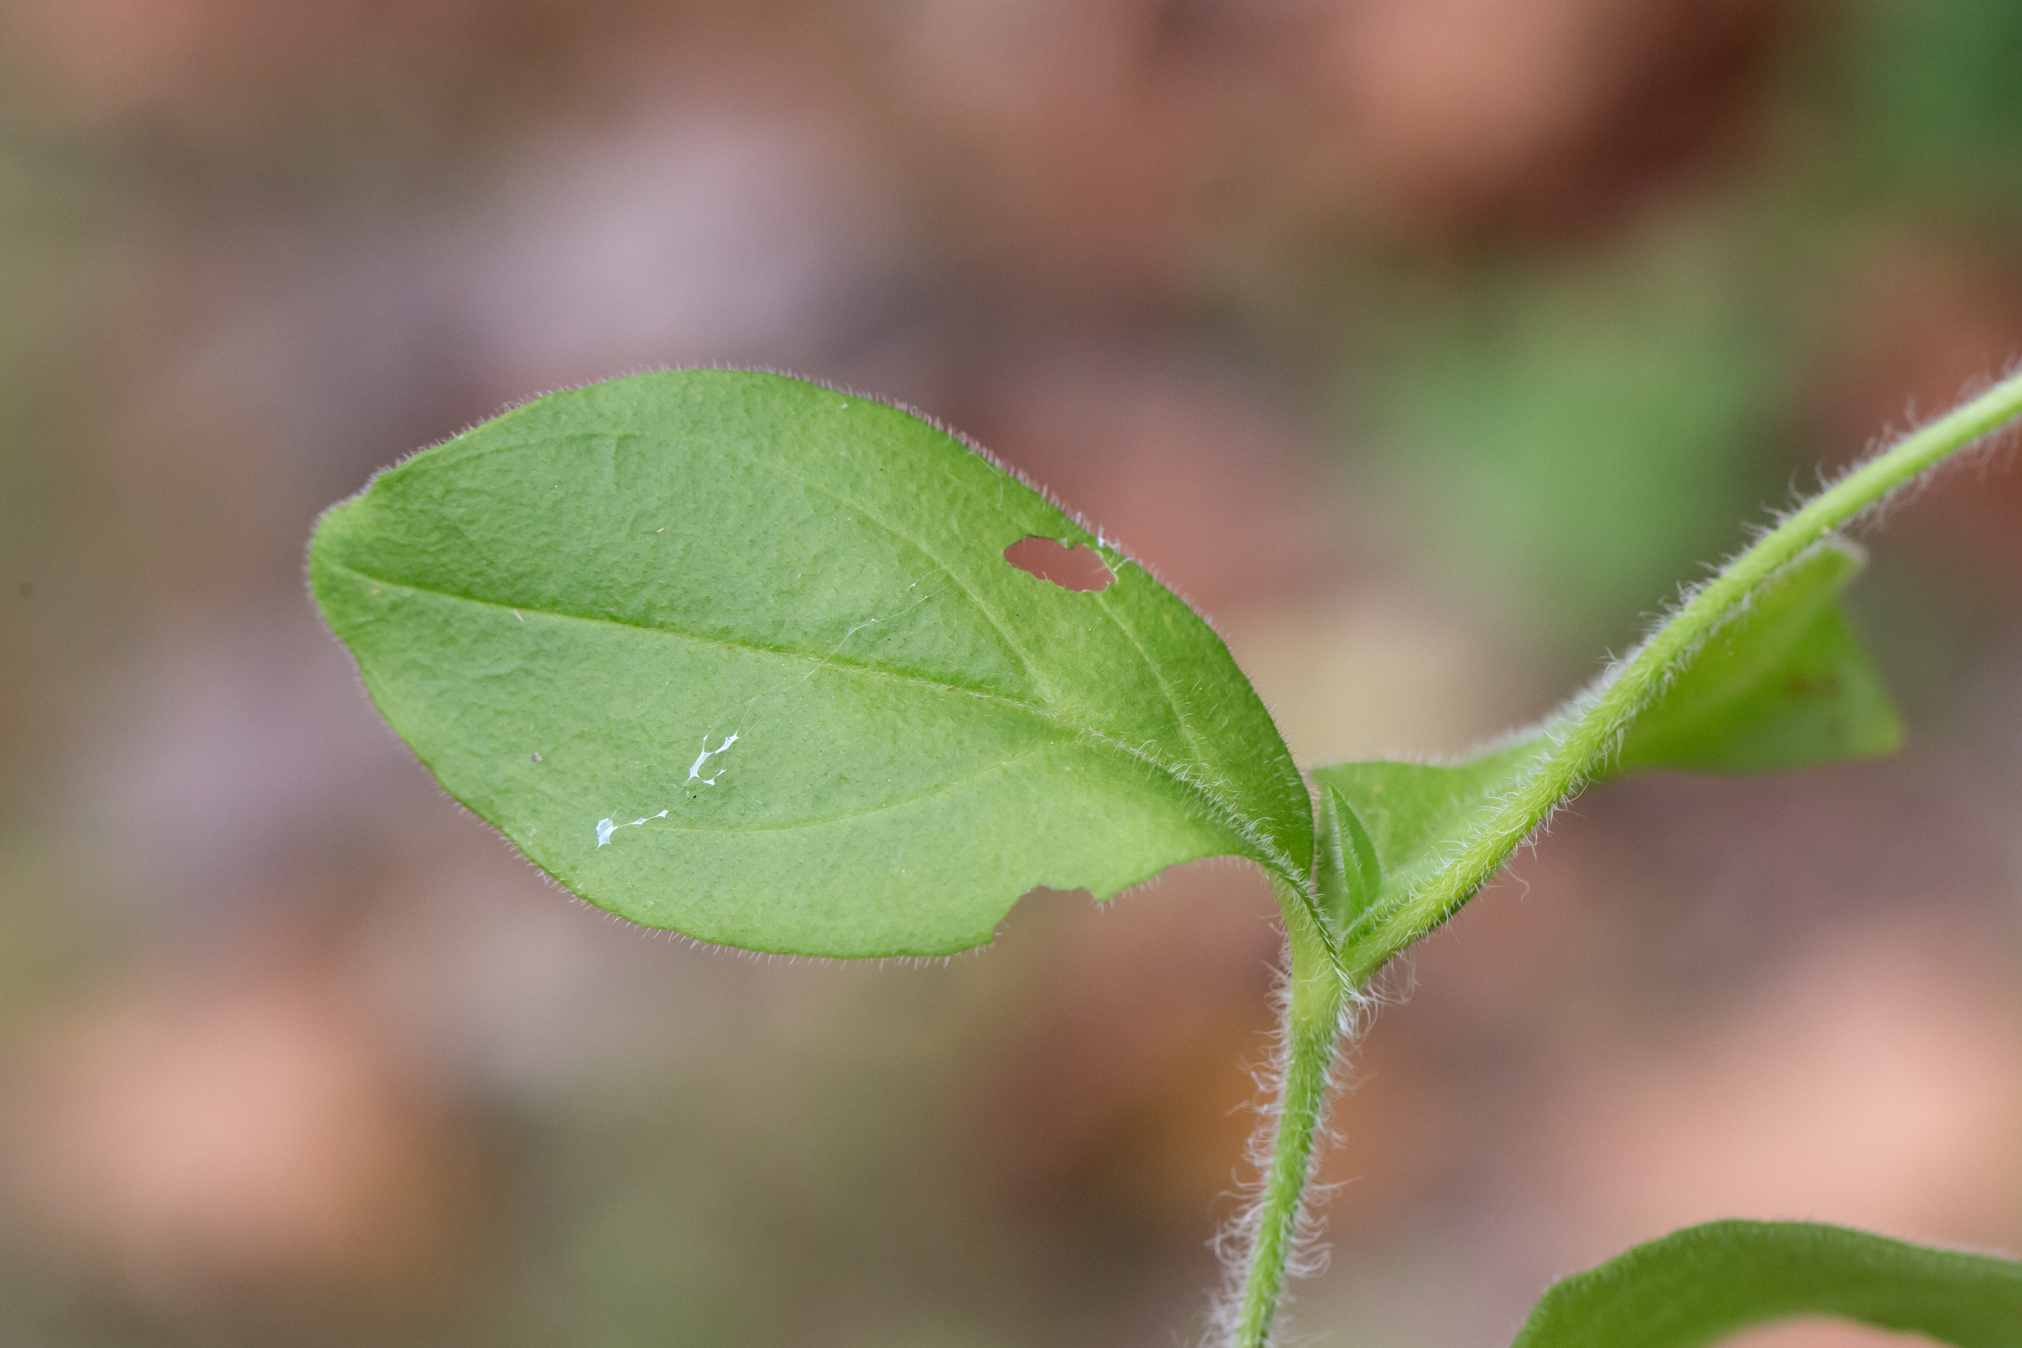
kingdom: Plantae
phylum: Tracheophyta
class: Magnoliopsida
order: Caryophyllales
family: Caryophyllaceae
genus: Silene
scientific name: Silene latifolia
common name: White campion
